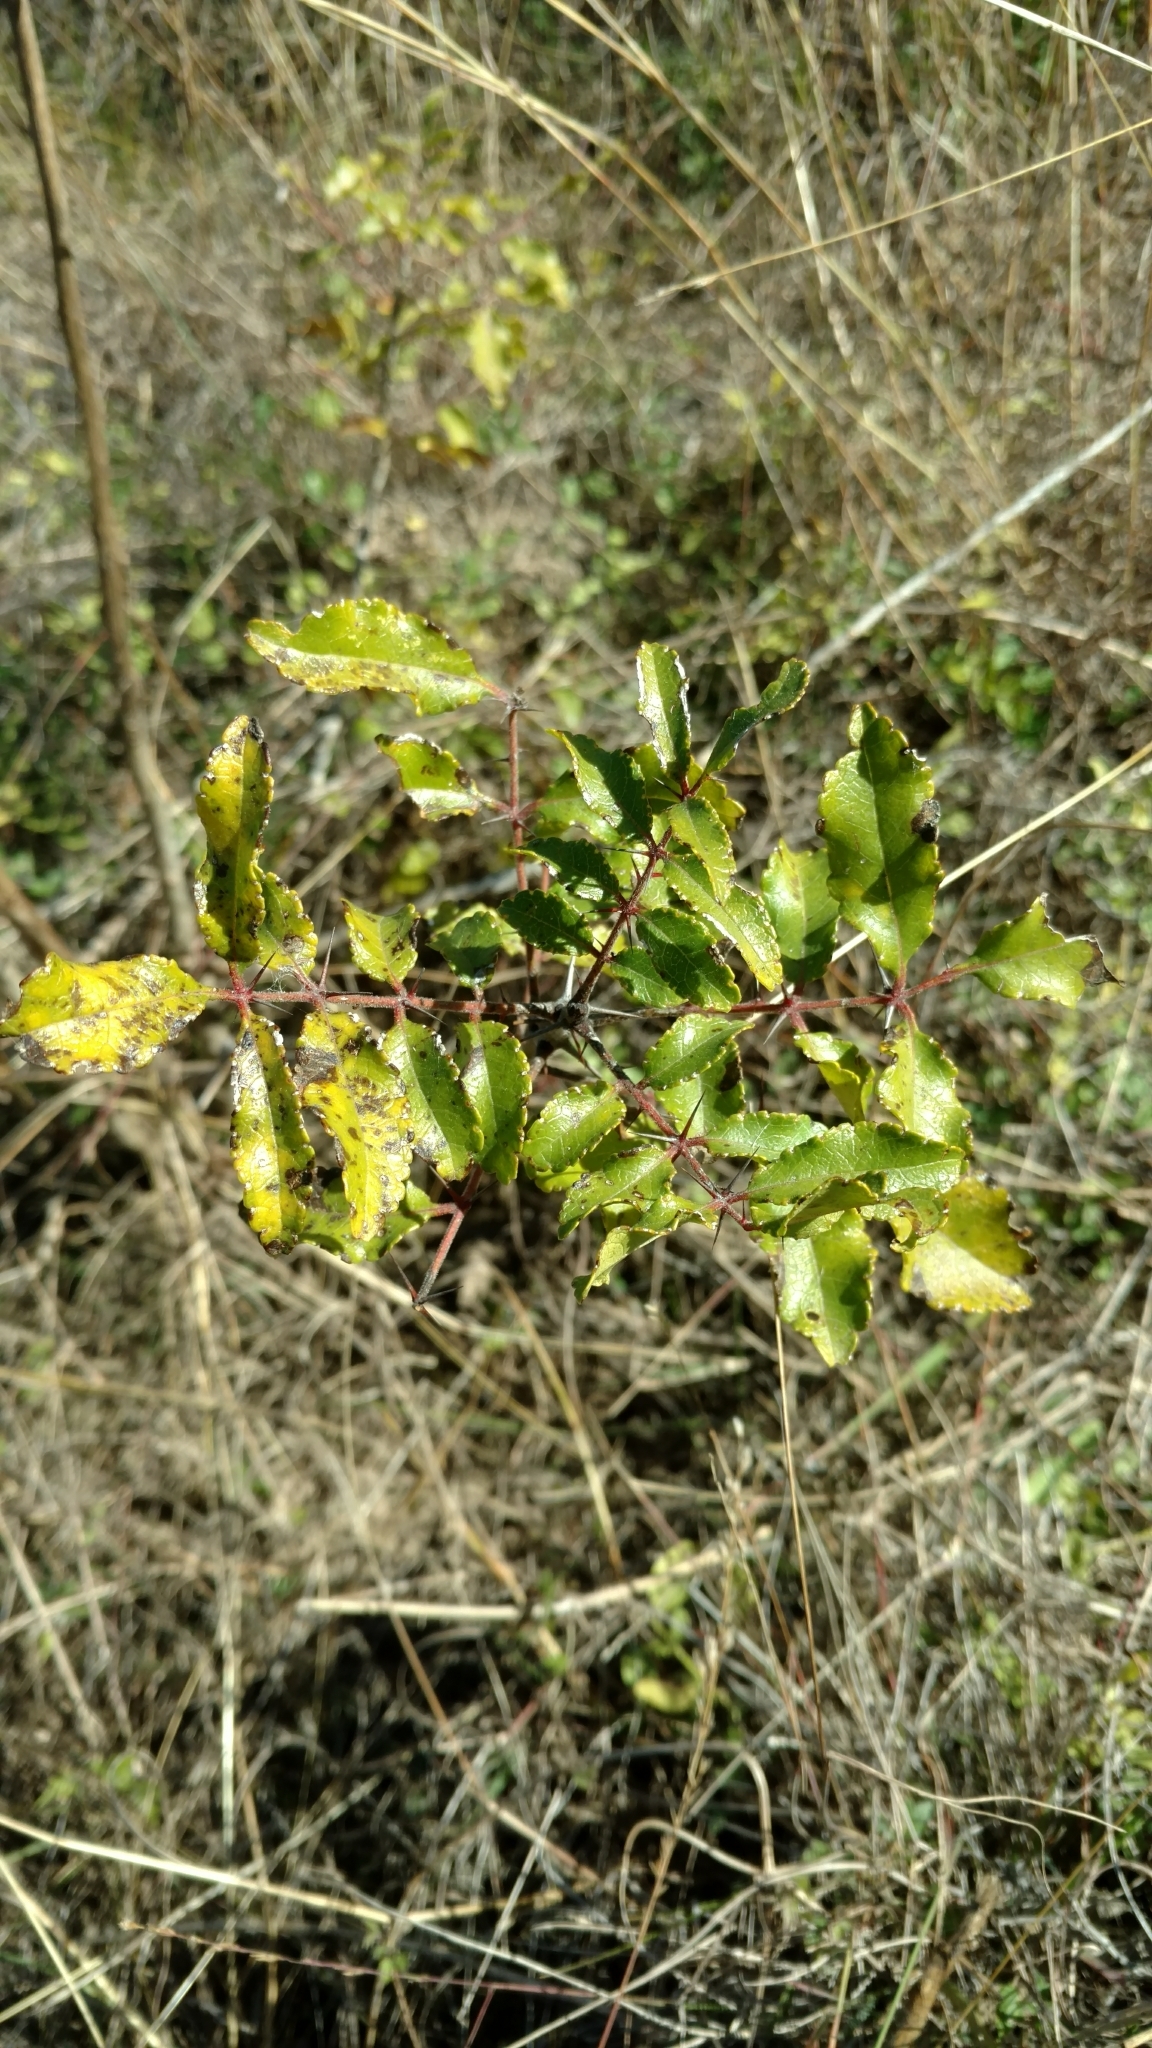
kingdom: Plantae
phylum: Tracheophyta
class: Magnoliopsida
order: Sapindales
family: Rutaceae
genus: Zanthoxylum
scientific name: Zanthoxylum clava-herculis
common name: Hercules'-club
